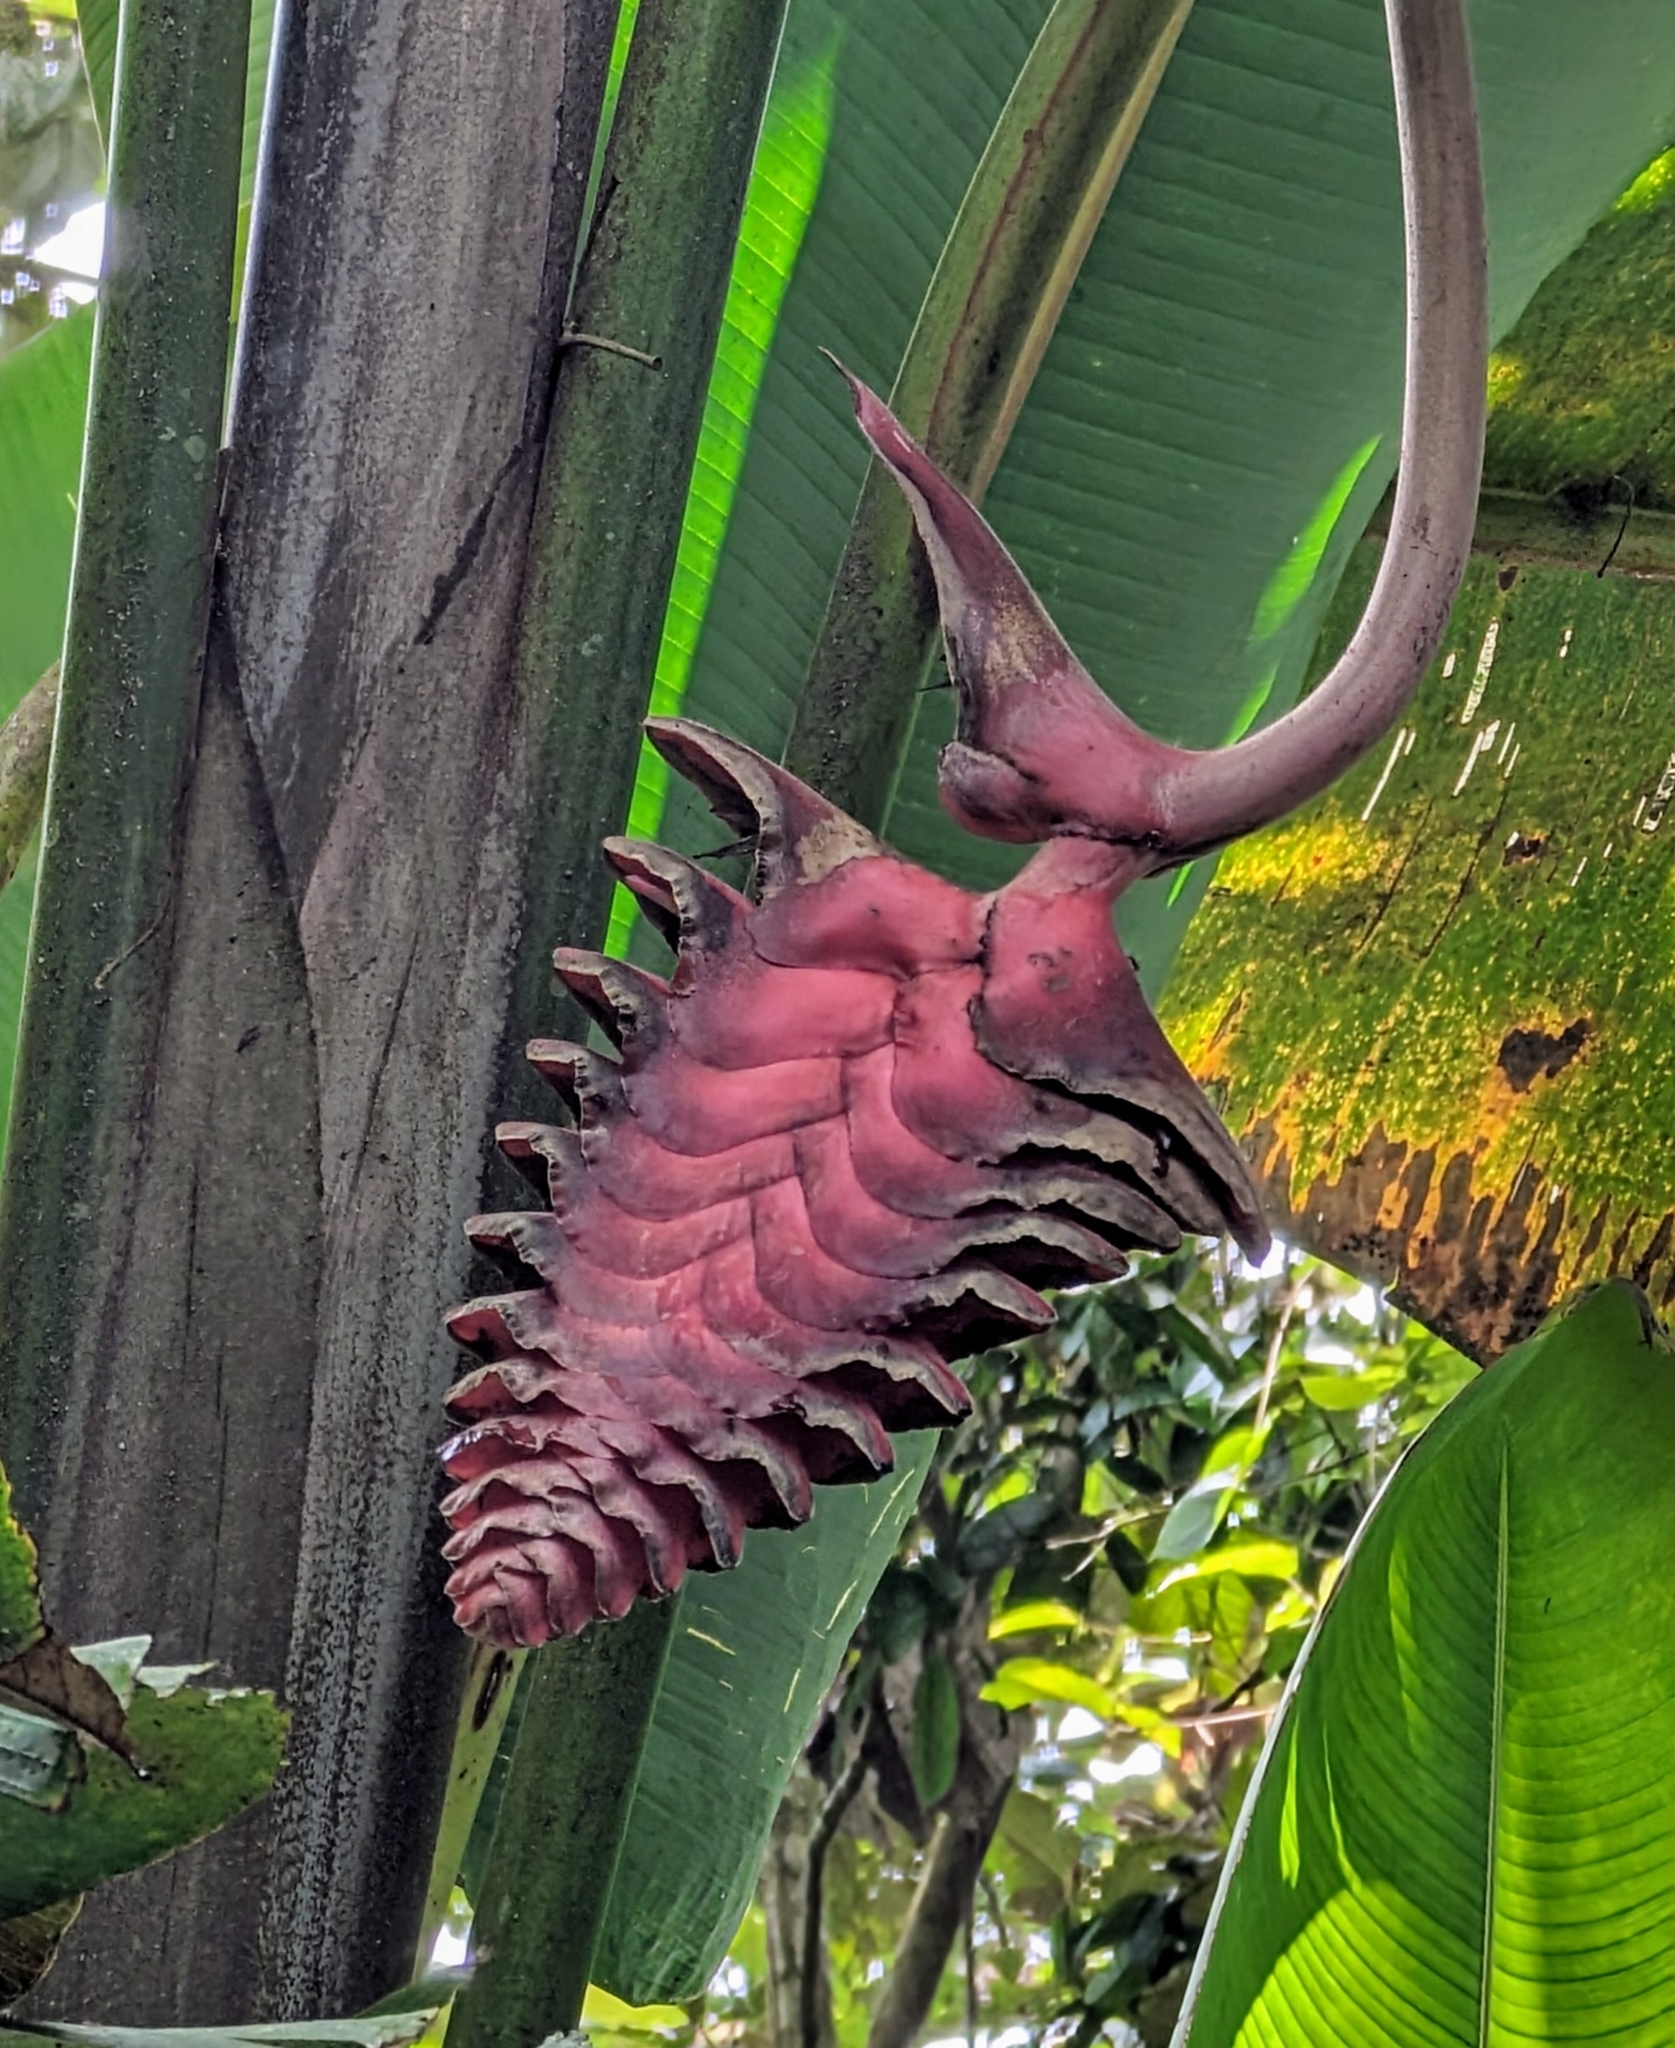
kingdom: Plantae
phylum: Tracheophyta
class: Liliopsida
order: Zingiberales
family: Heliconiaceae
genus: Heliconia
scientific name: Heliconia mariae
